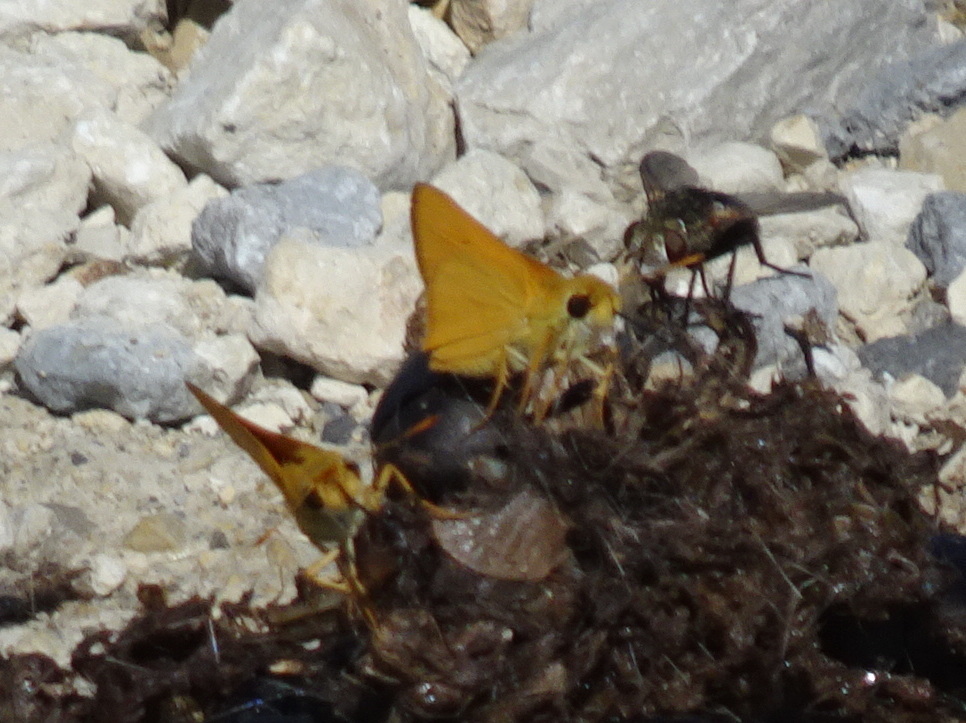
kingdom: Animalia
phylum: Arthropoda
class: Insecta
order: Lepidoptera
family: Hesperiidae
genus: Atrytone
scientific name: Atrytone delaware
